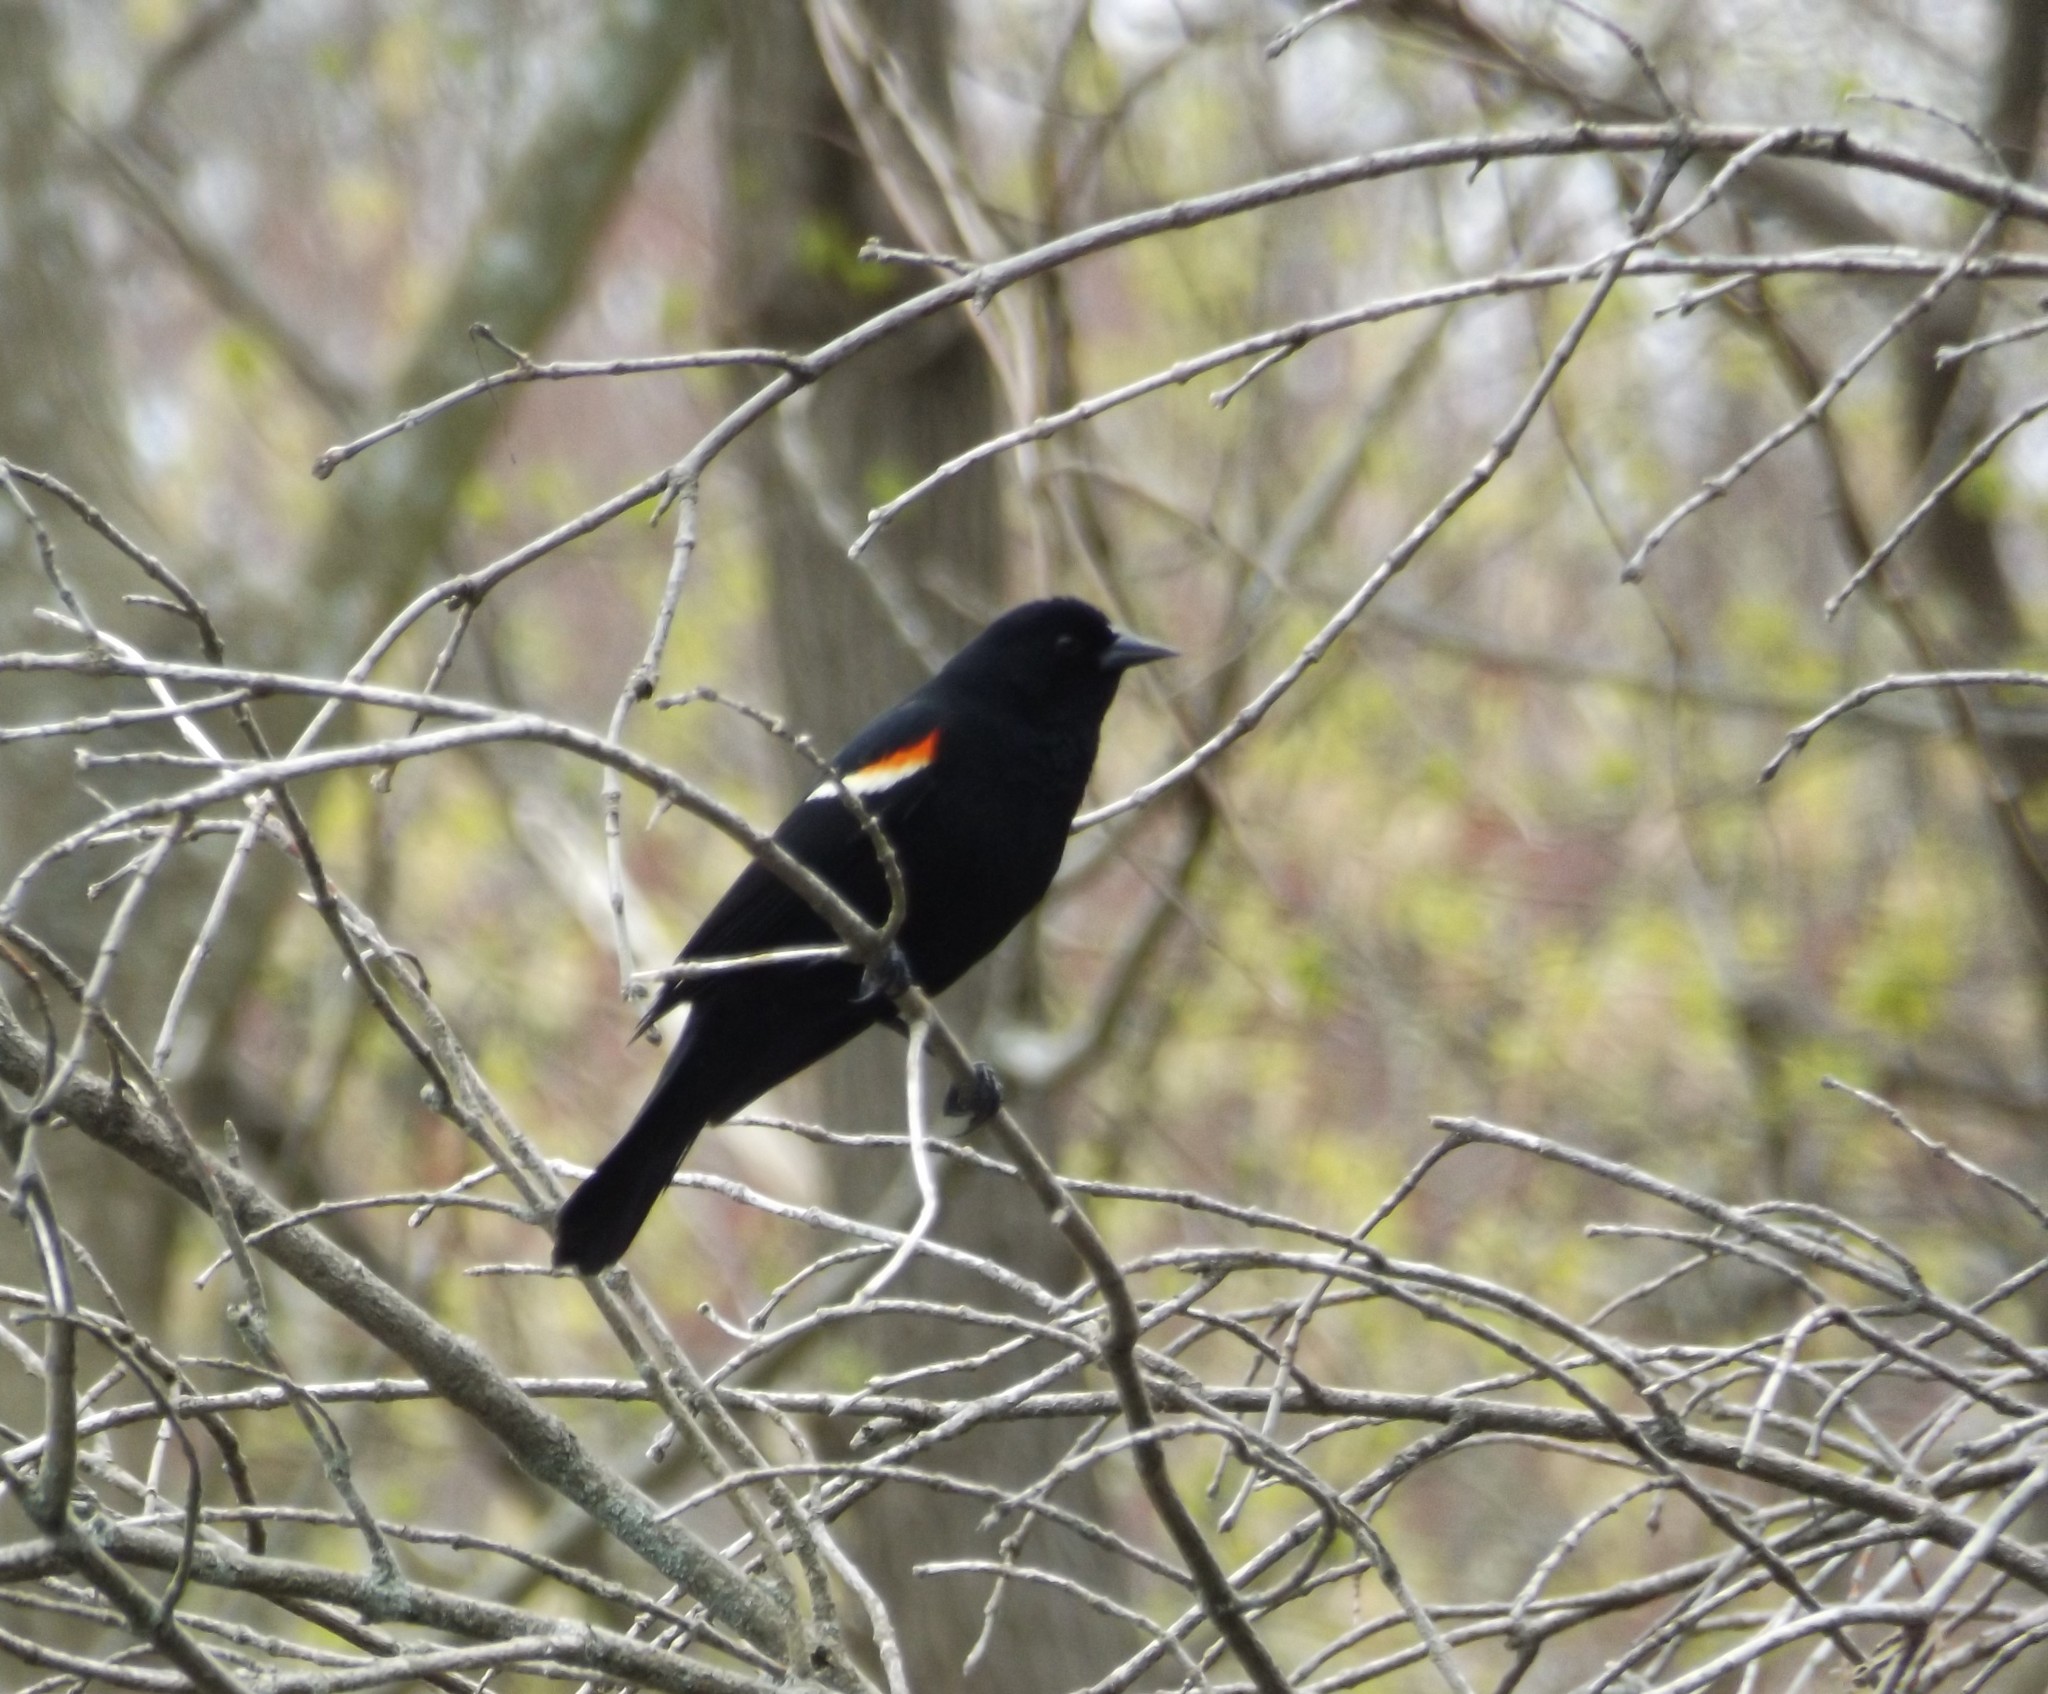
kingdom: Animalia
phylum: Chordata
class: Aves
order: Passeriformes
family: Icteridae
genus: Agelaius
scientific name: Agelaius phoeniceus
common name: Red-winged blackbird
